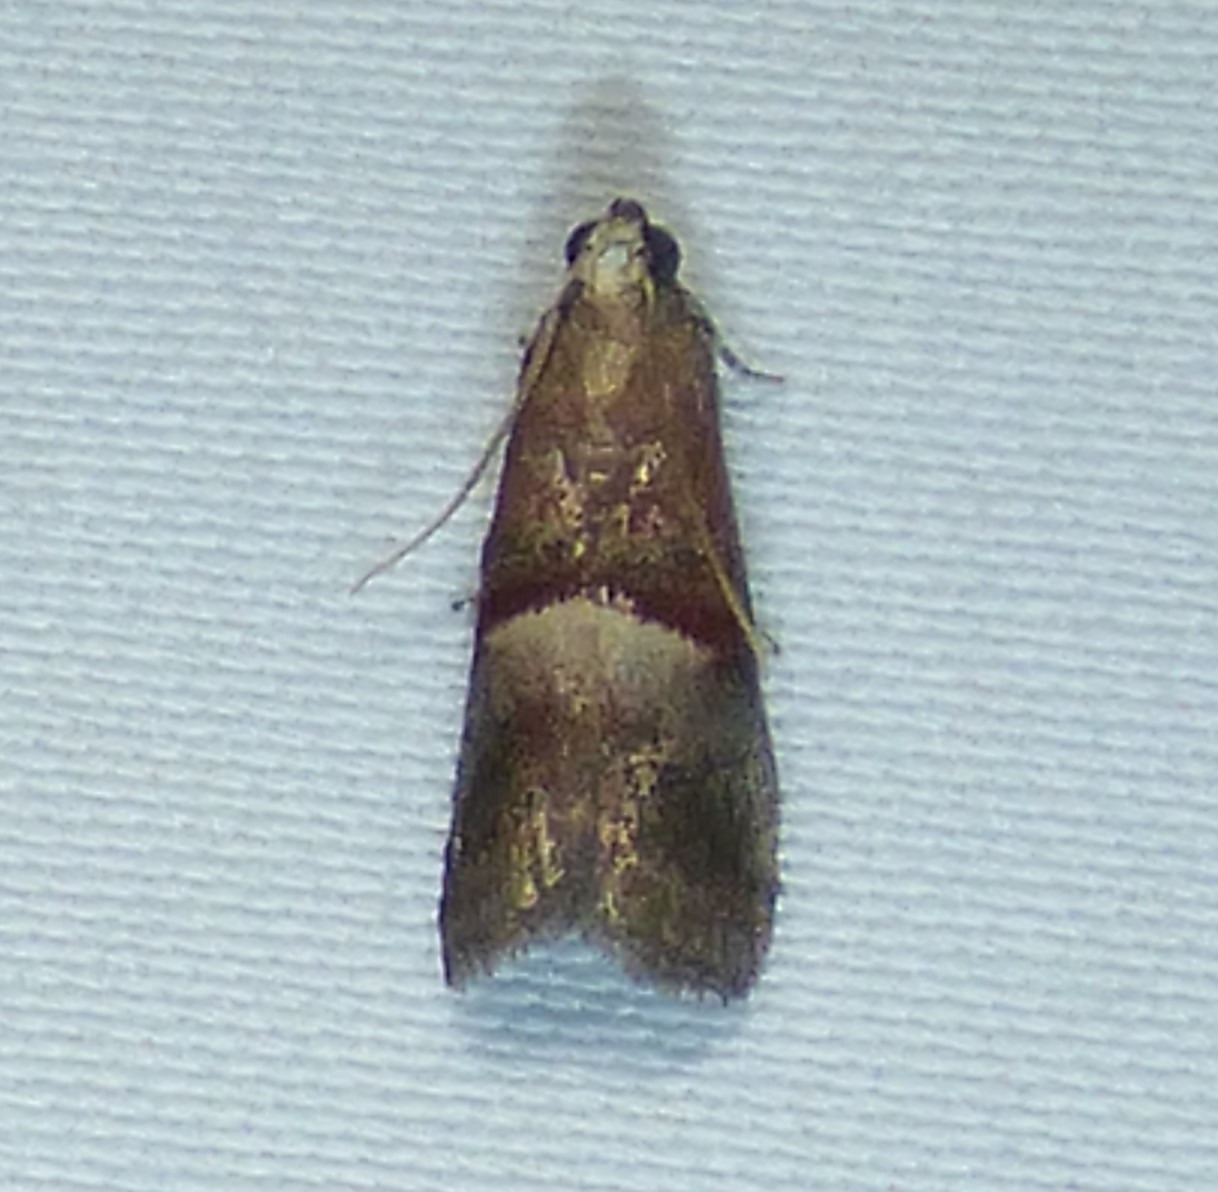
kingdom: Animalia
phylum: Arthropoda
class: Insecta
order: Lepidoptera
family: Pyralidae
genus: Acrobasis
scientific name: Acrobasis exsulella
